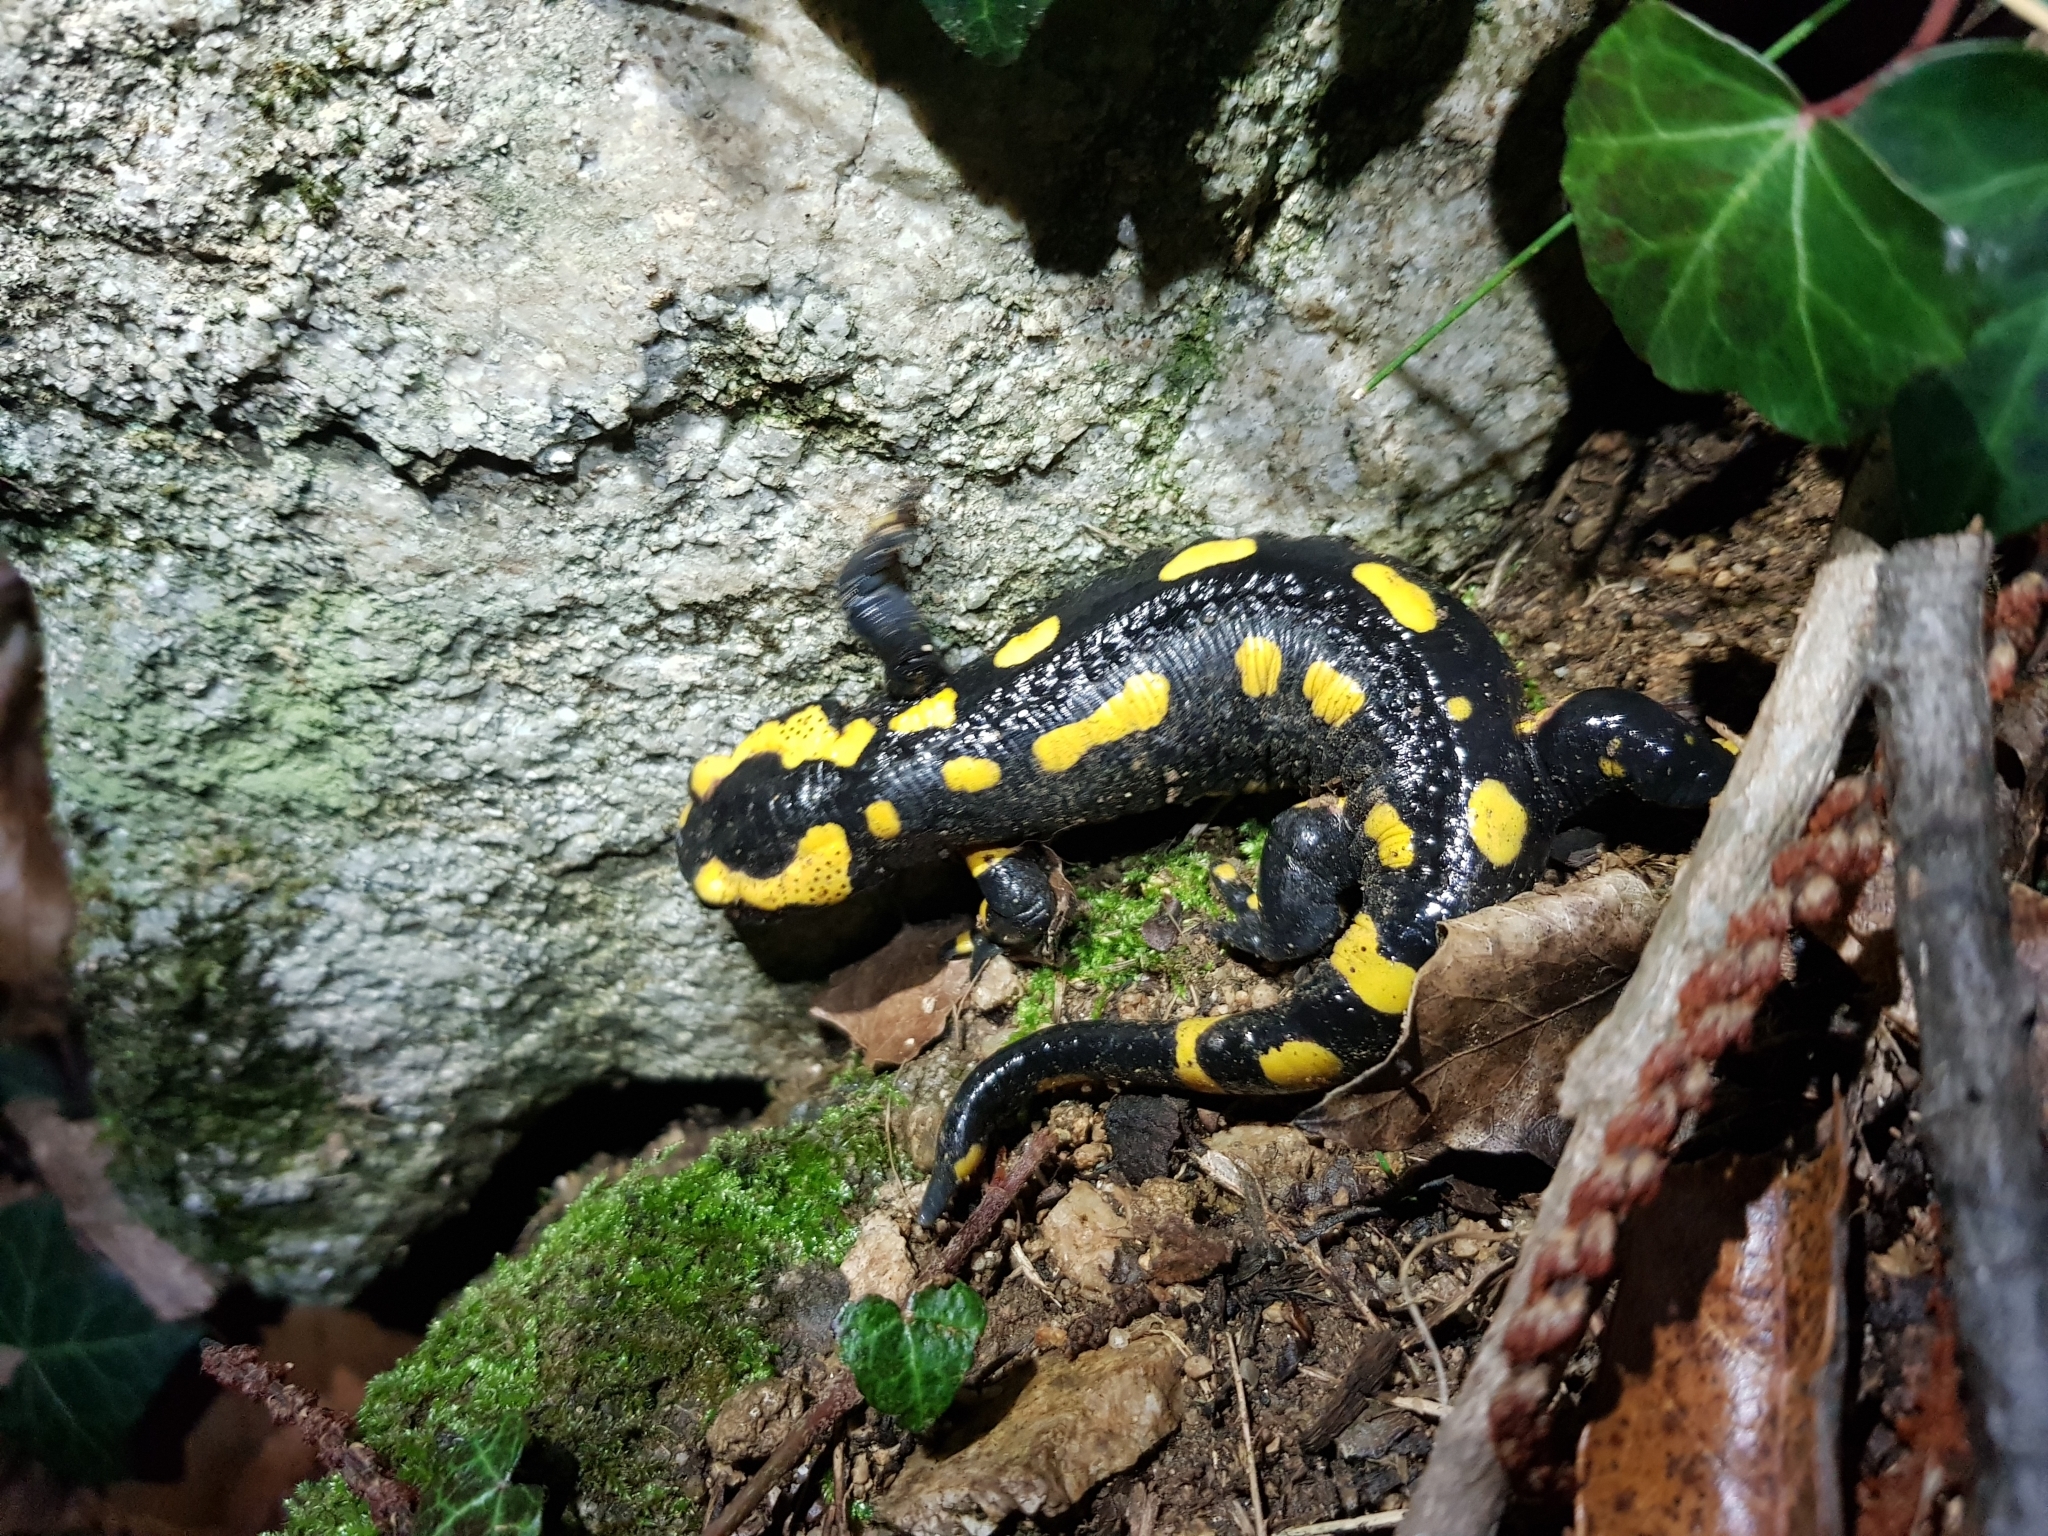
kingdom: Animalia
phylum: Chordata
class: Amphibia
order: Caudata
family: Salamandridae
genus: Salamandra
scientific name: Salamandra salamandra
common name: Fire salamander
